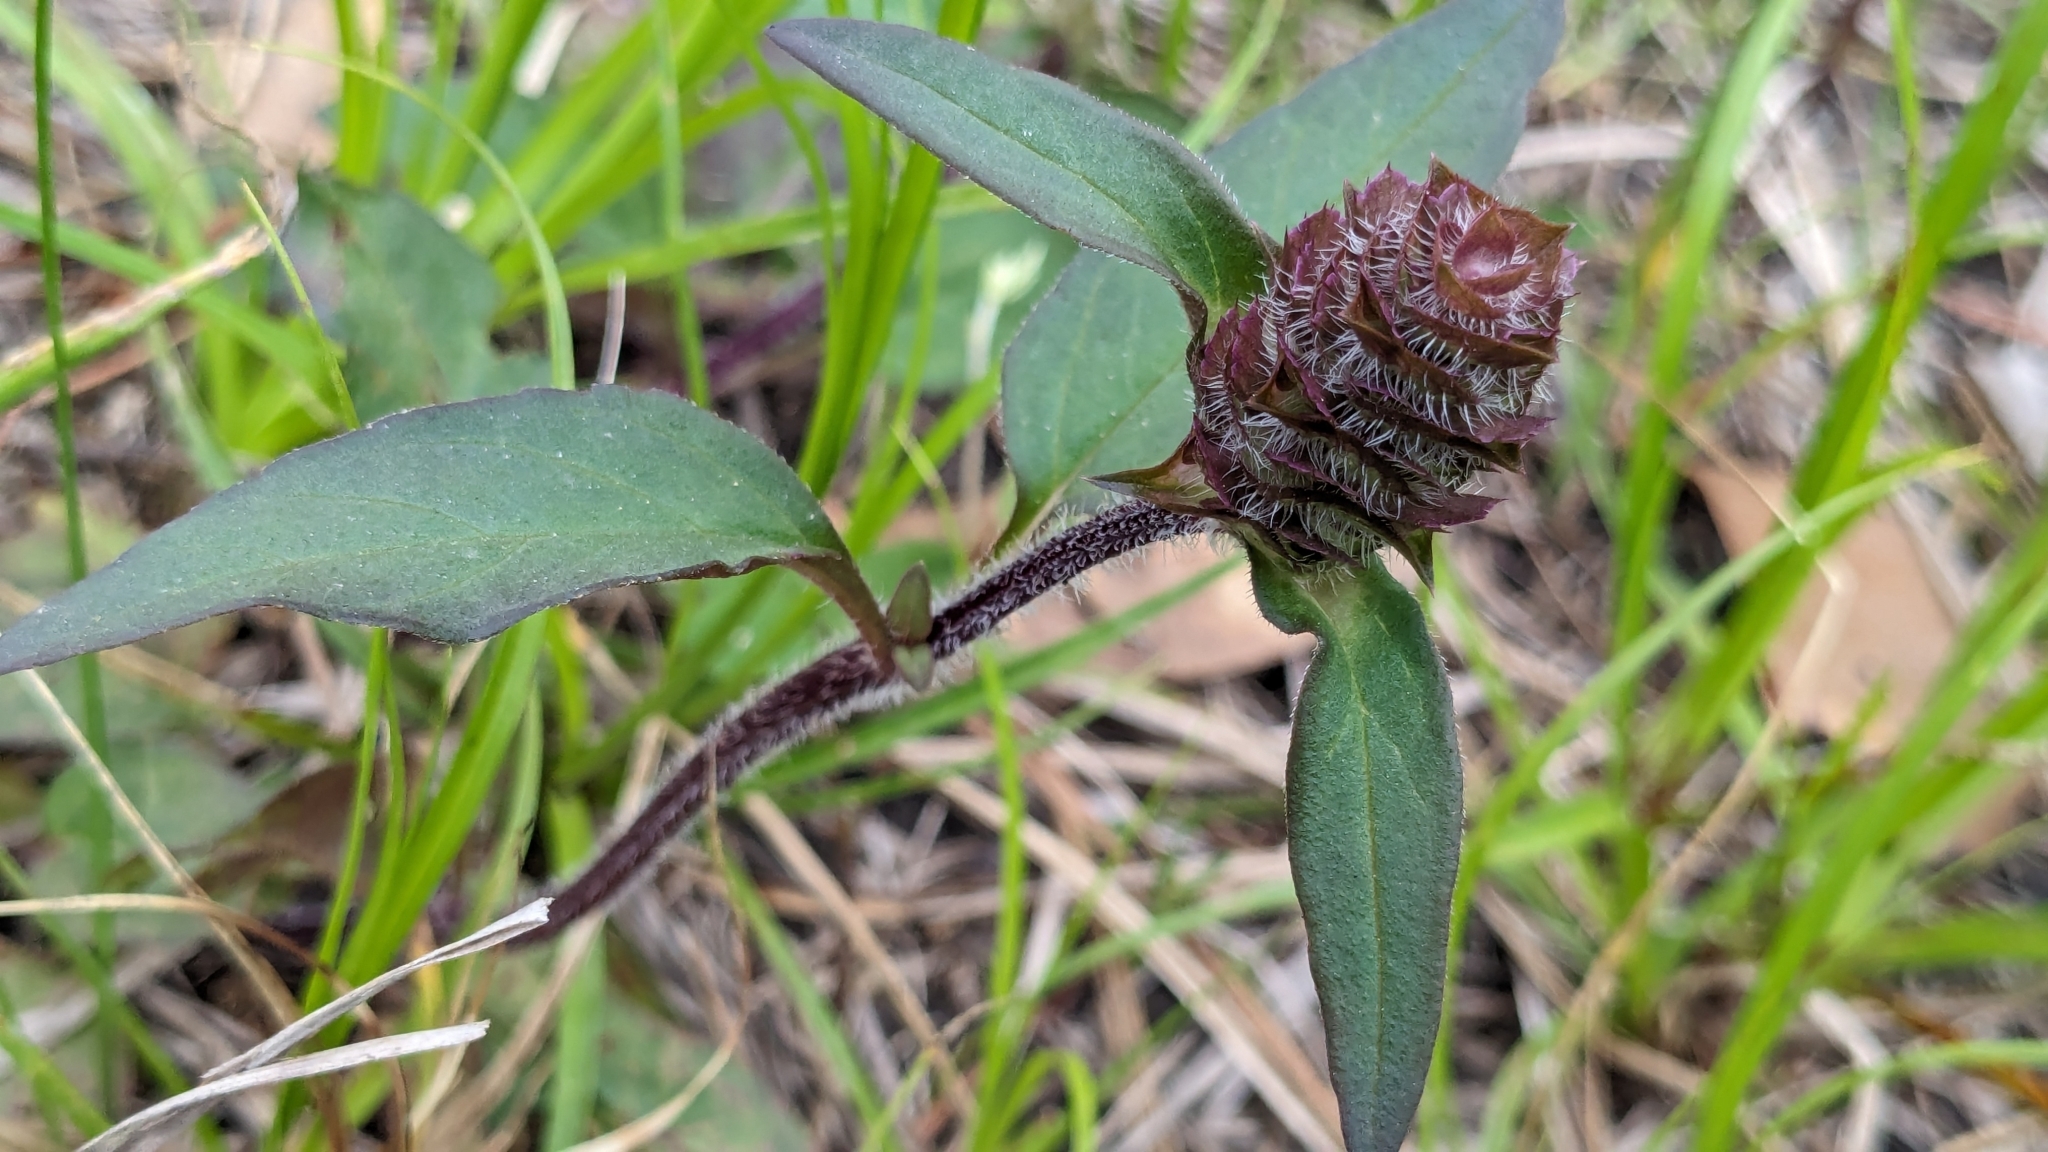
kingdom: Plantae
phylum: Tracheophyta
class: Magnoliopsida
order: Lamiales
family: Lamiaceae
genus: Prunella
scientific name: Prunella vulgaris
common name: Heal-all
